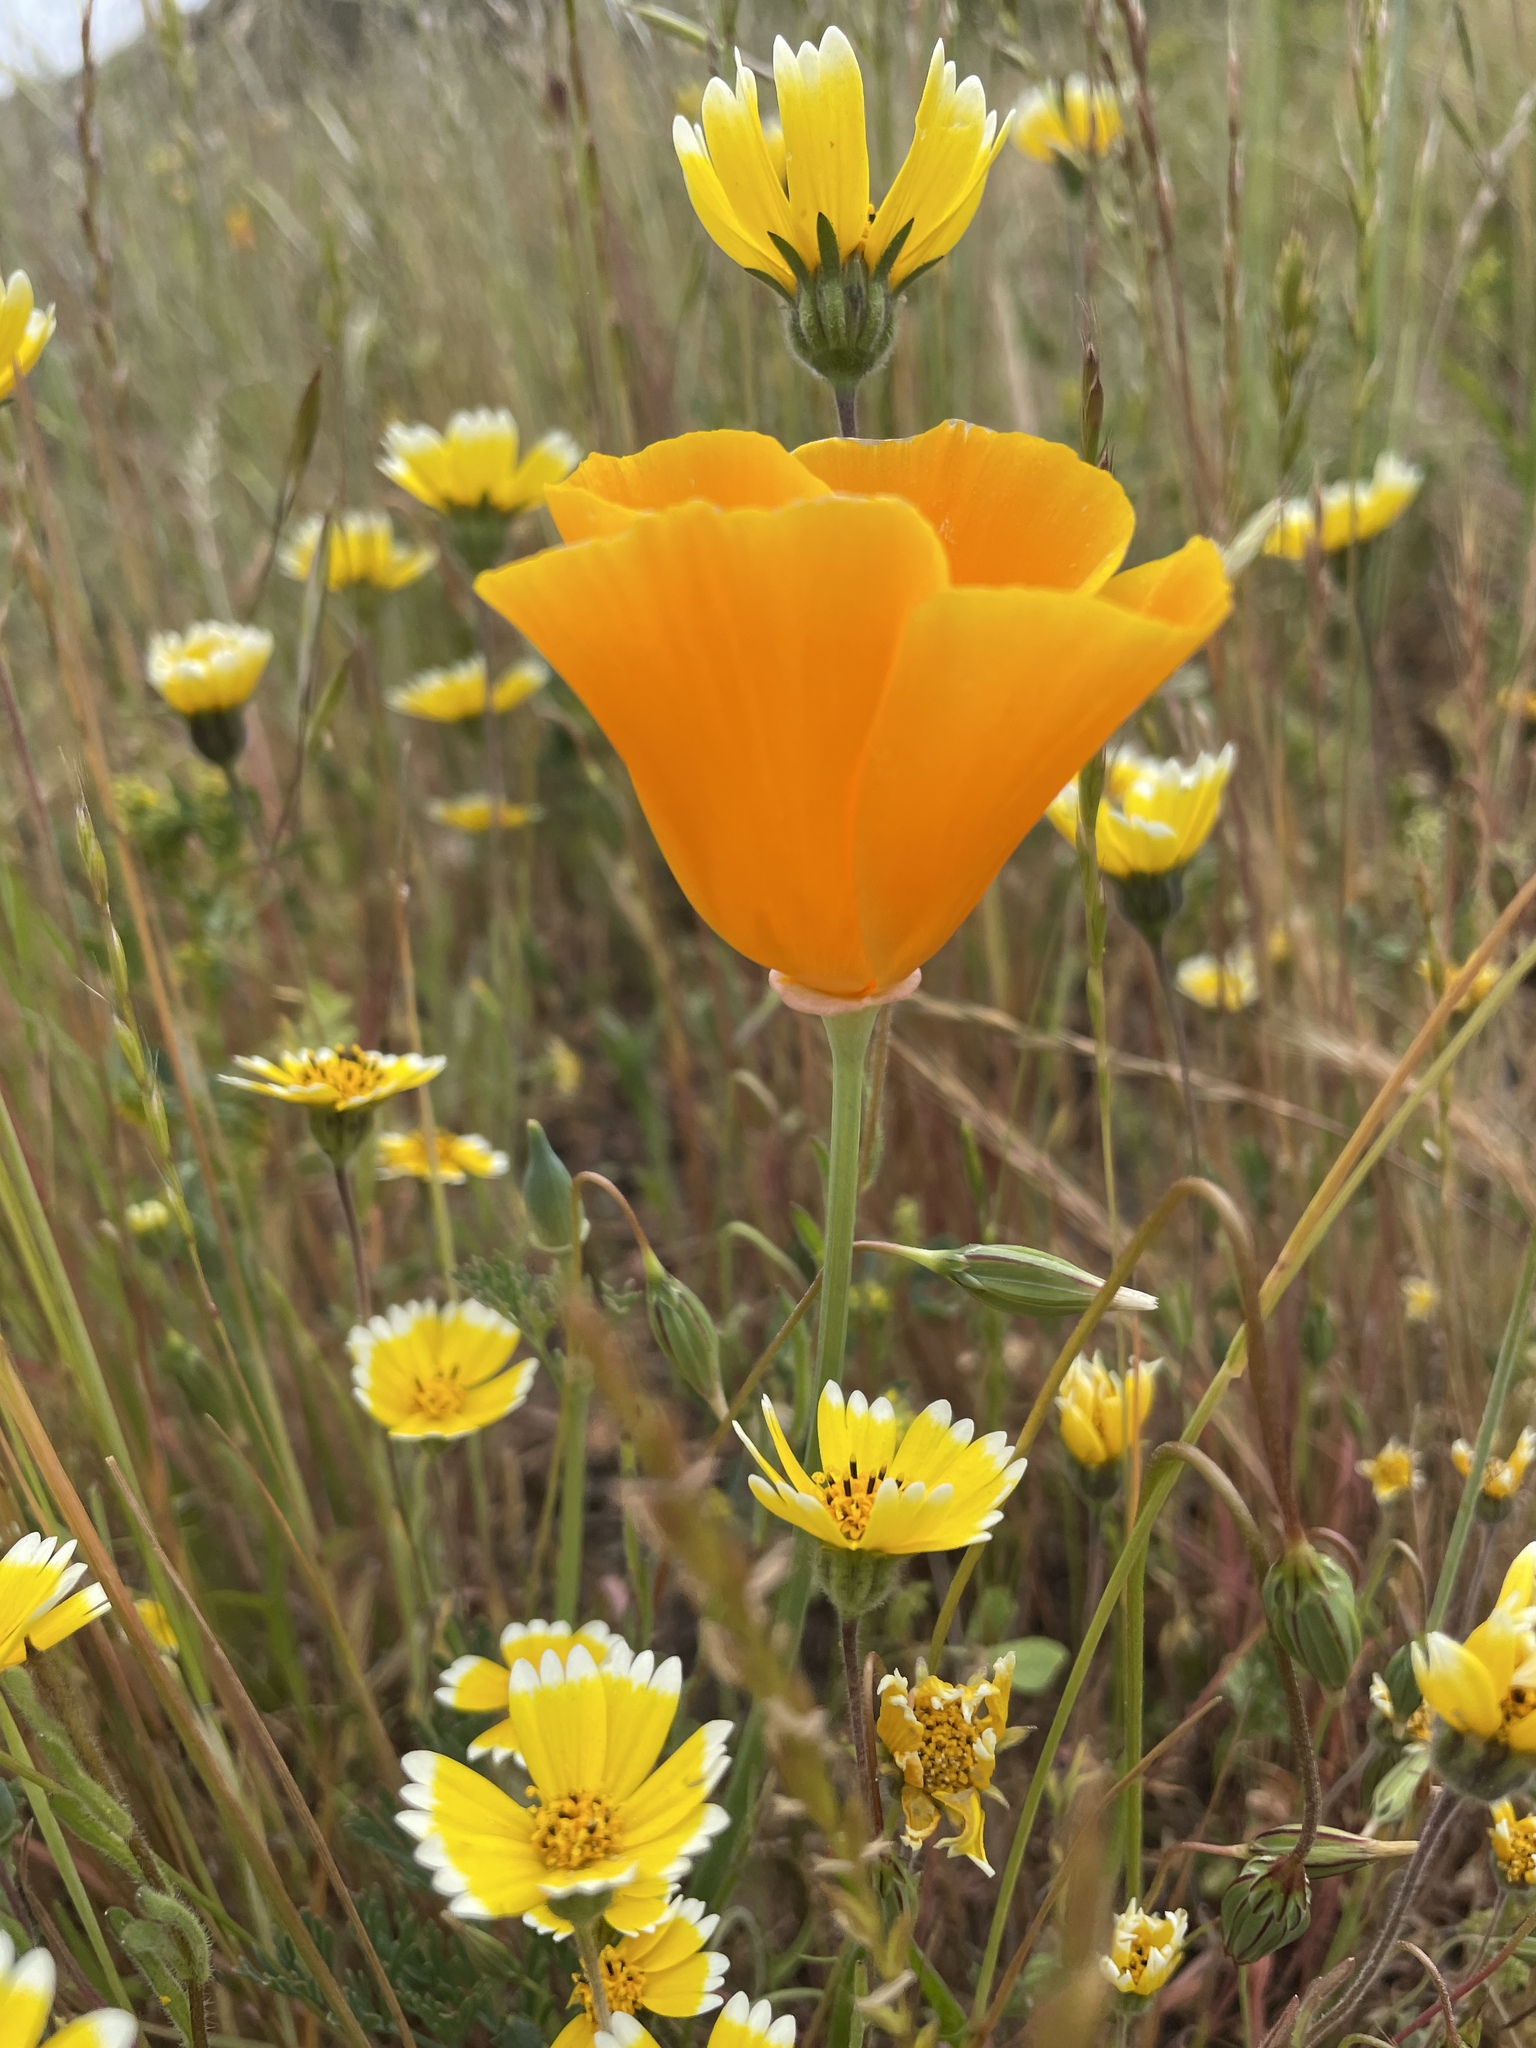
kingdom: Plantae
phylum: Tracheophyta
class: Magnoliopsida
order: Ranunculales
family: Papaveraceae
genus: Eschscholzia
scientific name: Eschscholzia californica
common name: California poppy
